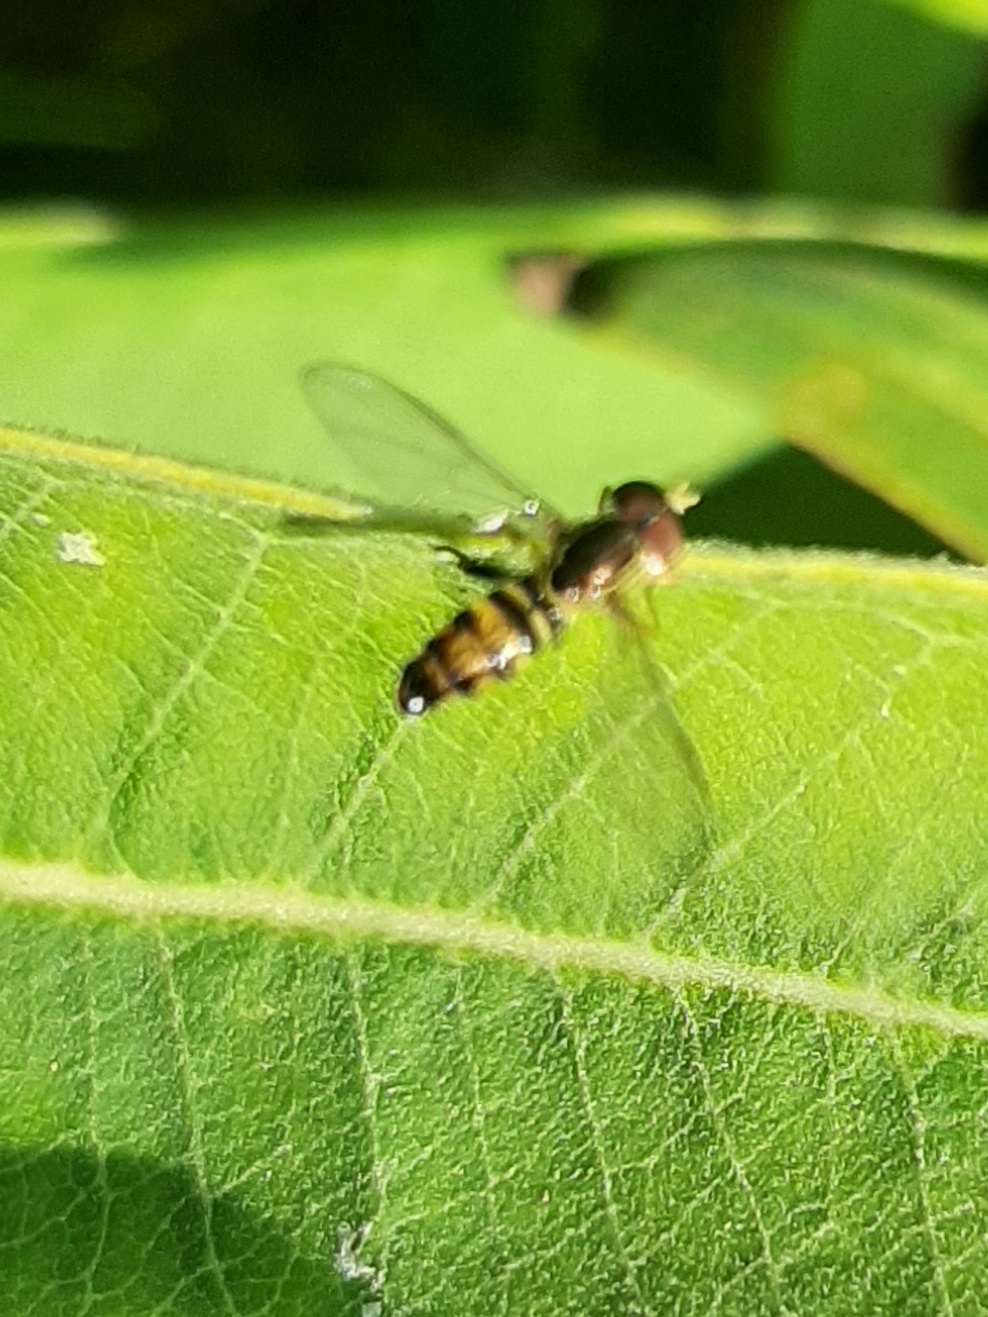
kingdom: Animalia
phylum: Arthropoda
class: Insecta
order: Diptera
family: Syrphidae
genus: Toxomerus
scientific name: Toxomerus geminatus
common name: Eastern calligrapher
